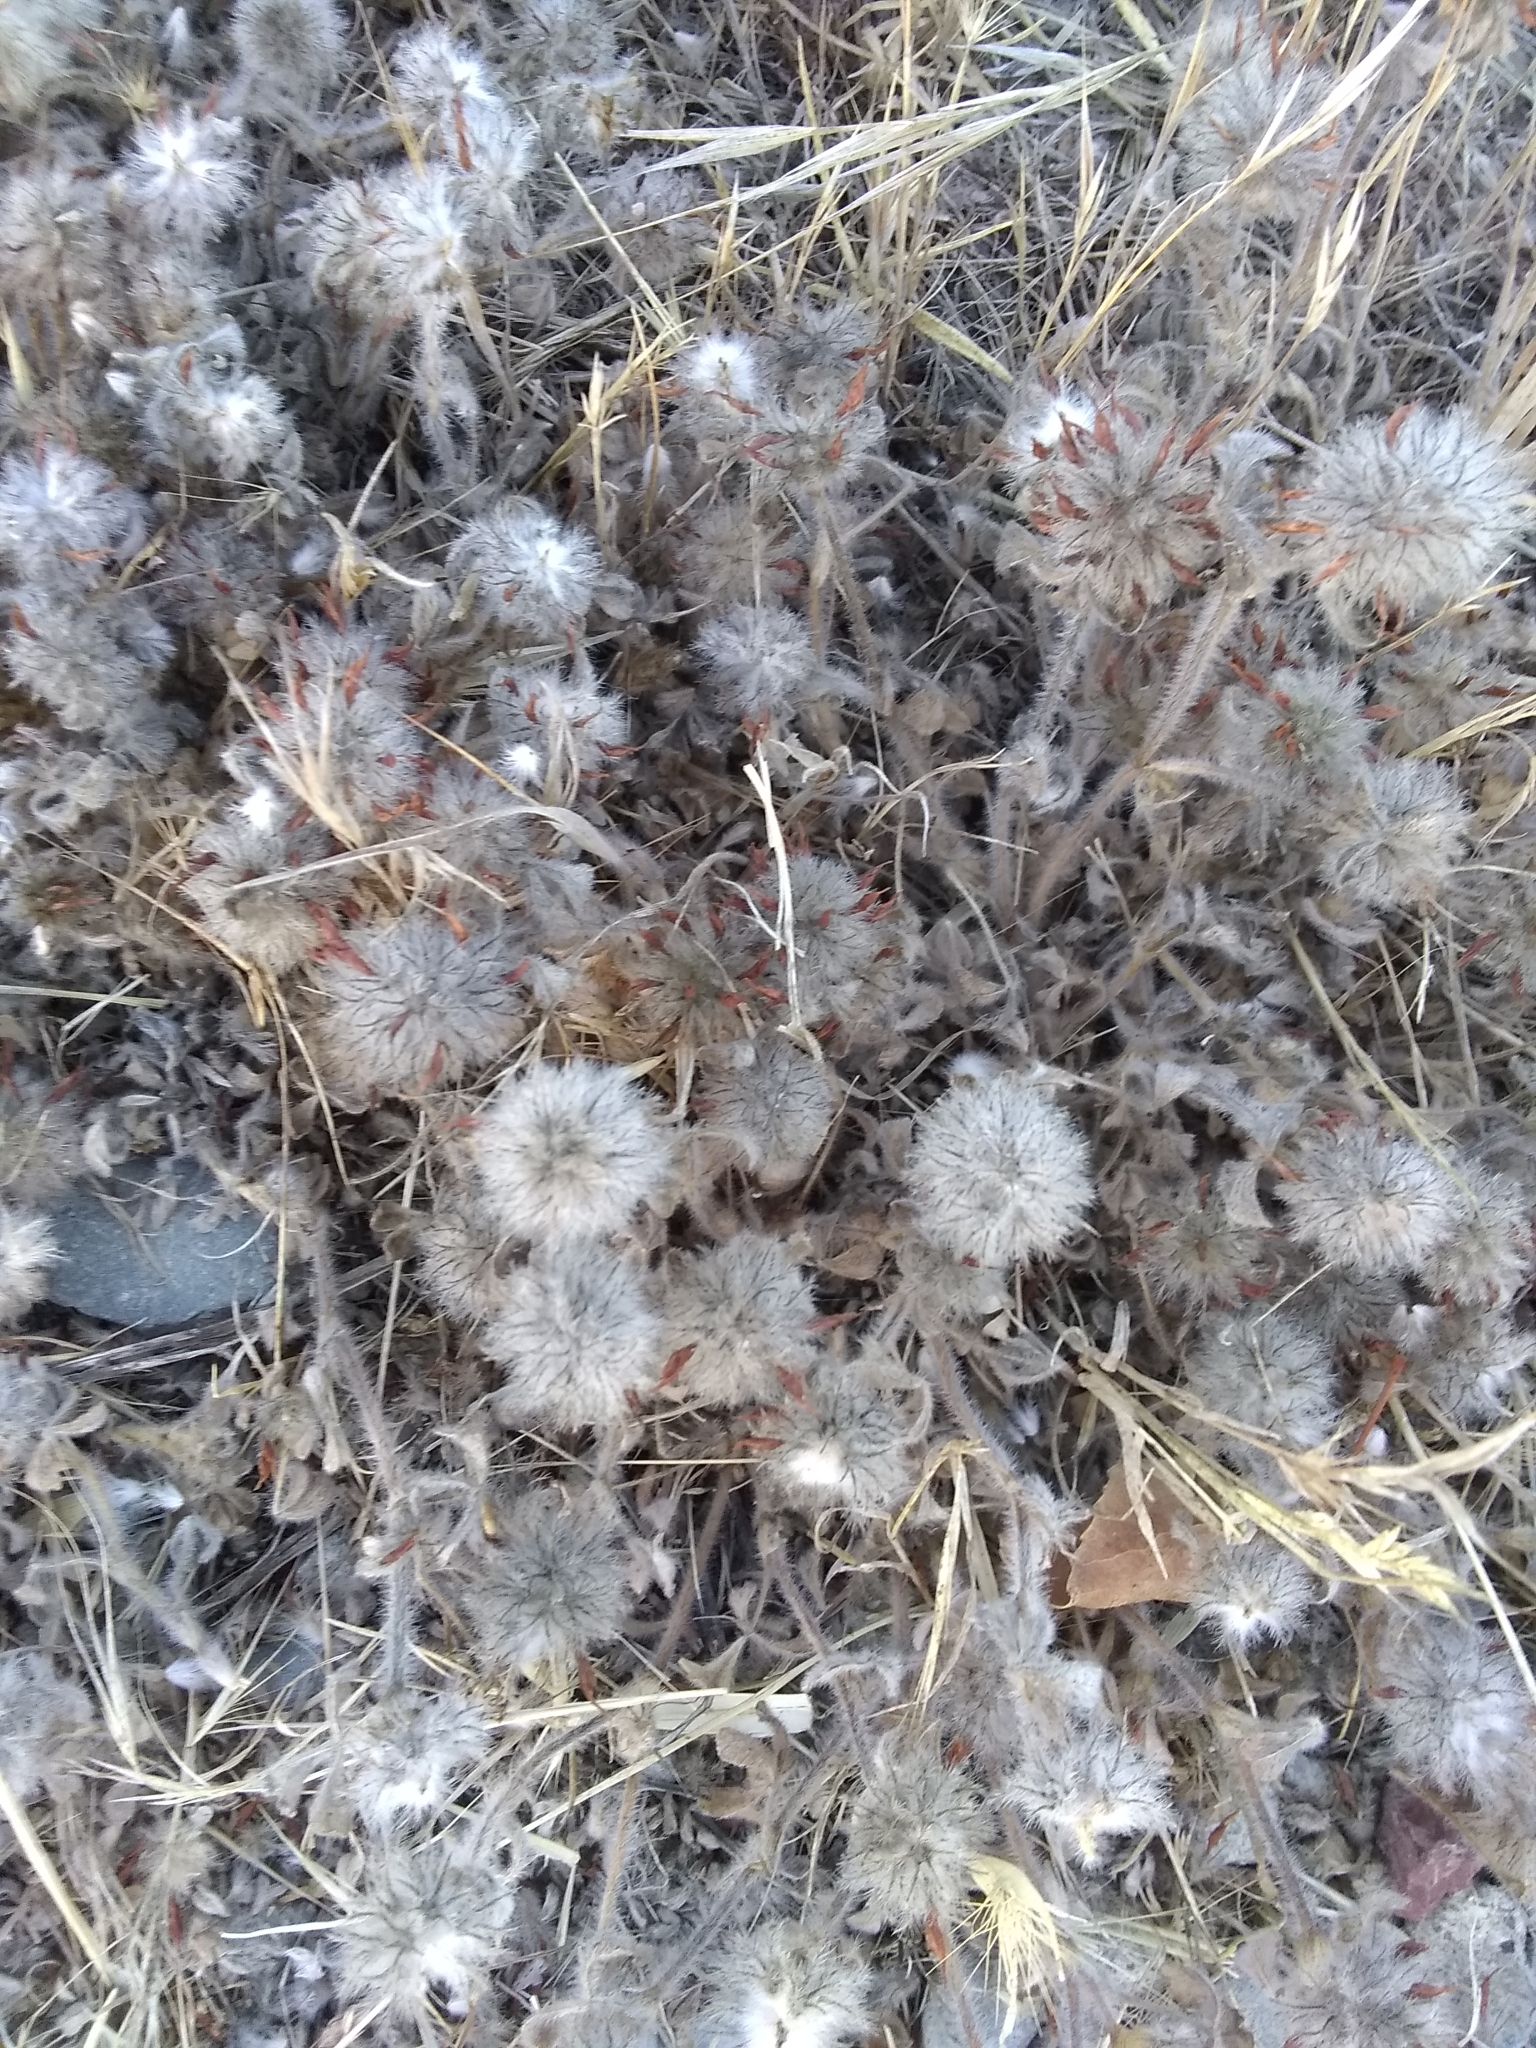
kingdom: Plantae
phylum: Tracheophyta
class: Magnoliopsida
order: Fabales
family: Fabaceae
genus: Trifolium
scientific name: Trifolium hirtum
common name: Rose clover
